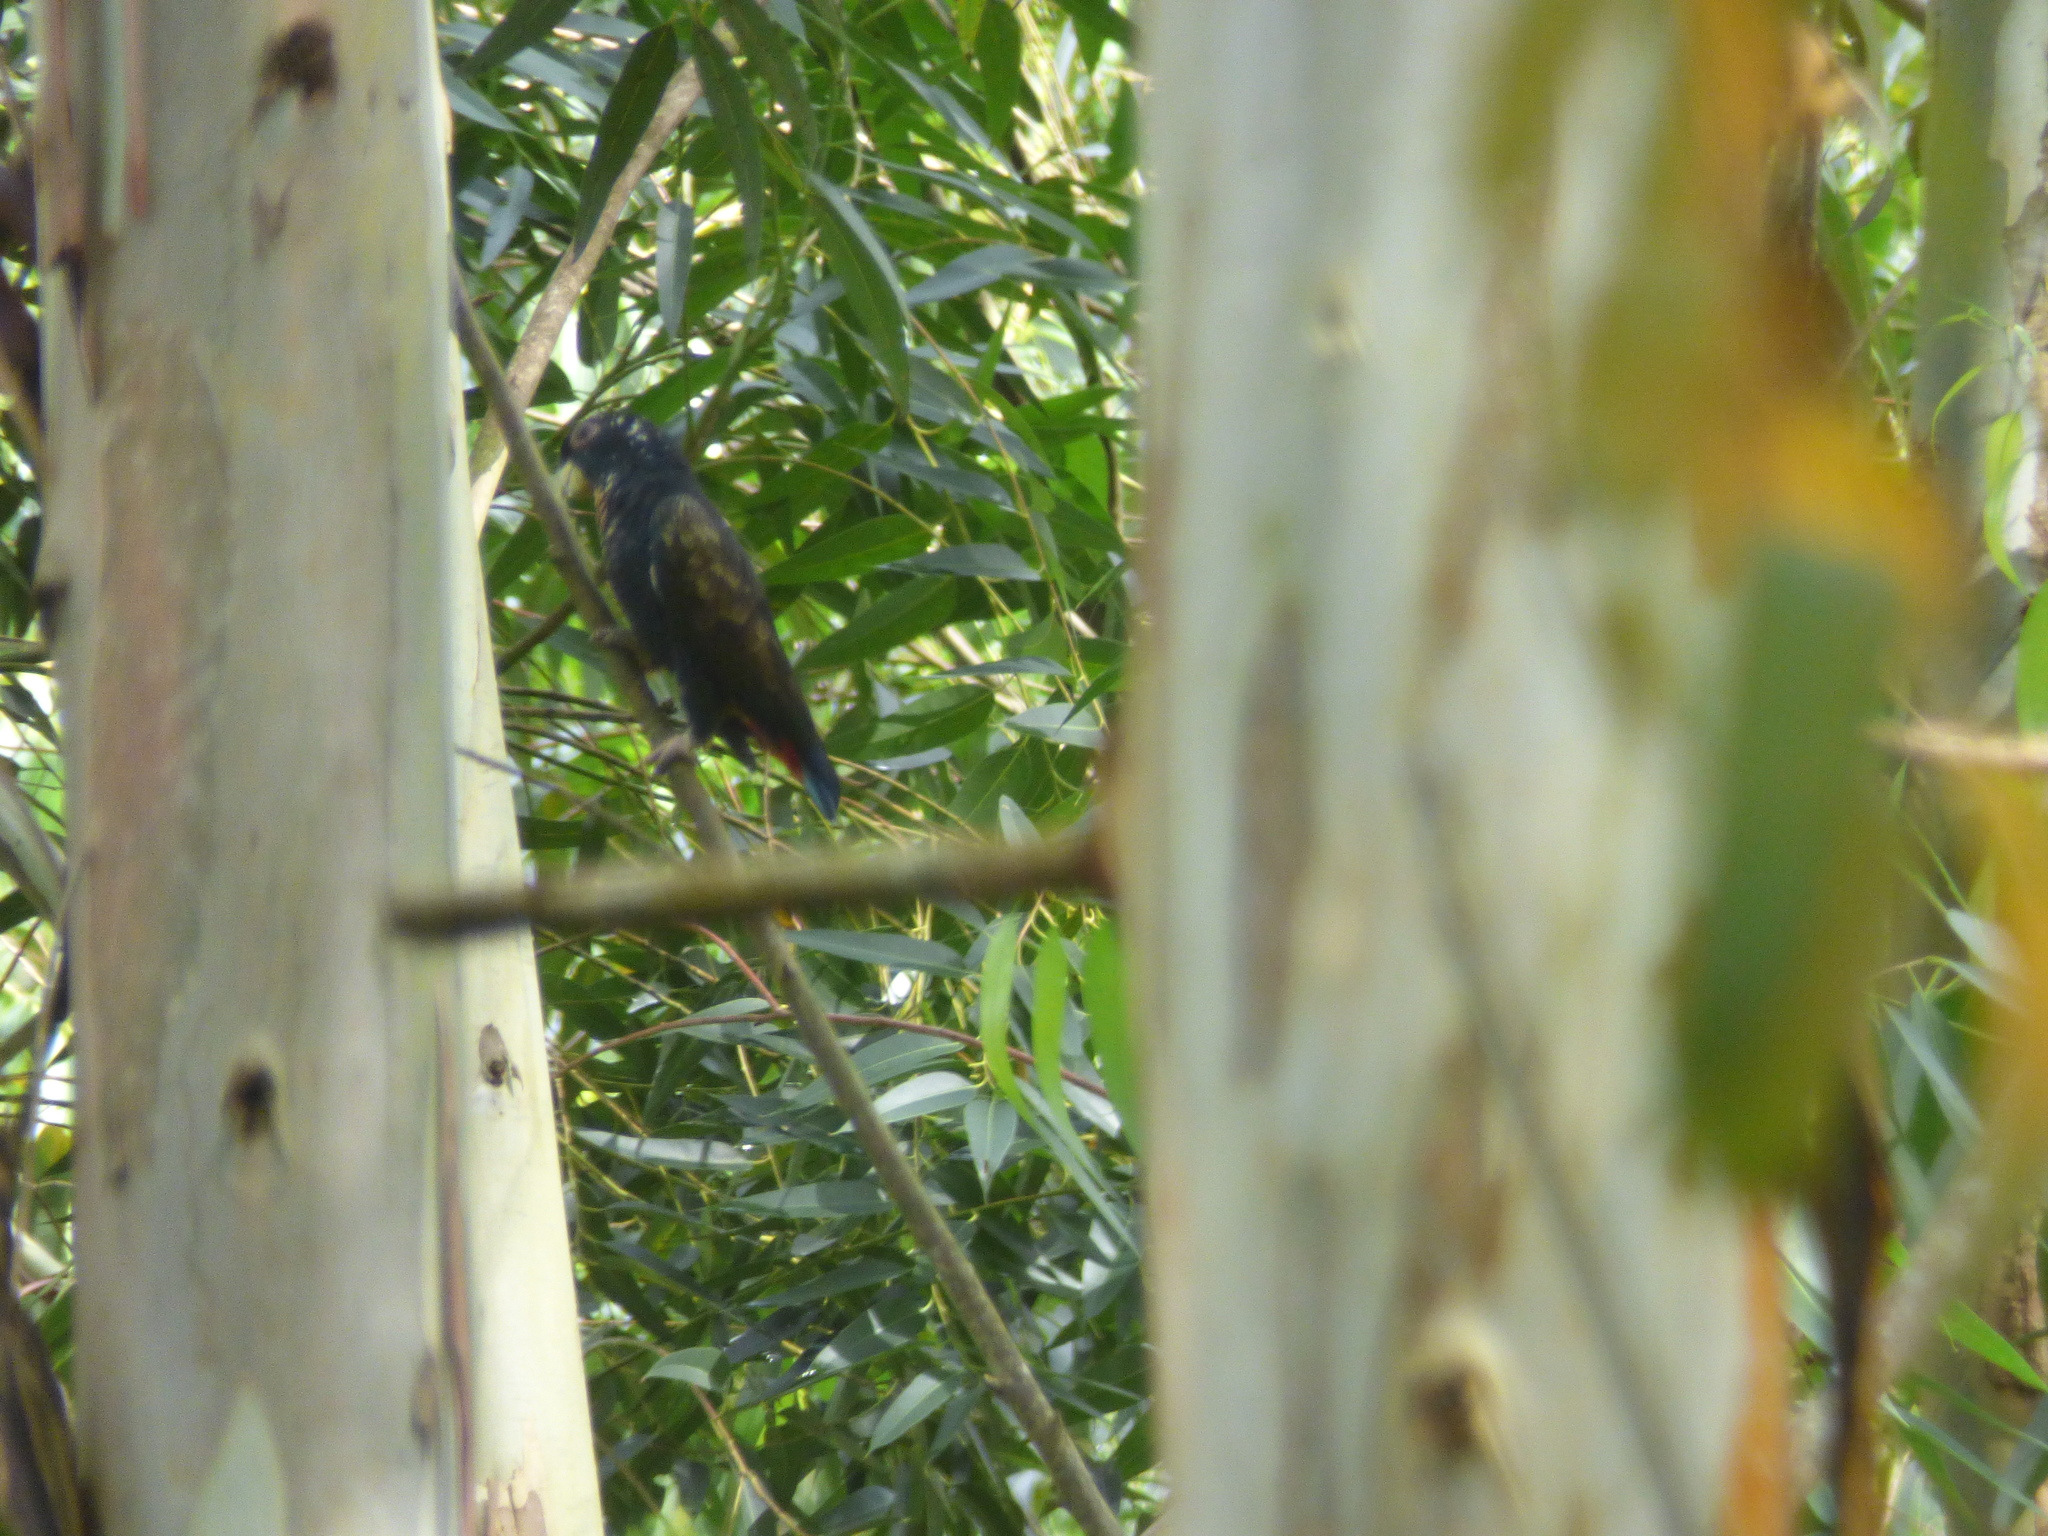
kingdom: Animalia
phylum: Chordata
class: Aves
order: Psittaciformes
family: Psittacidae
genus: Pionus
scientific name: Pionus chalcopterus
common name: Bronze-winged parrot
